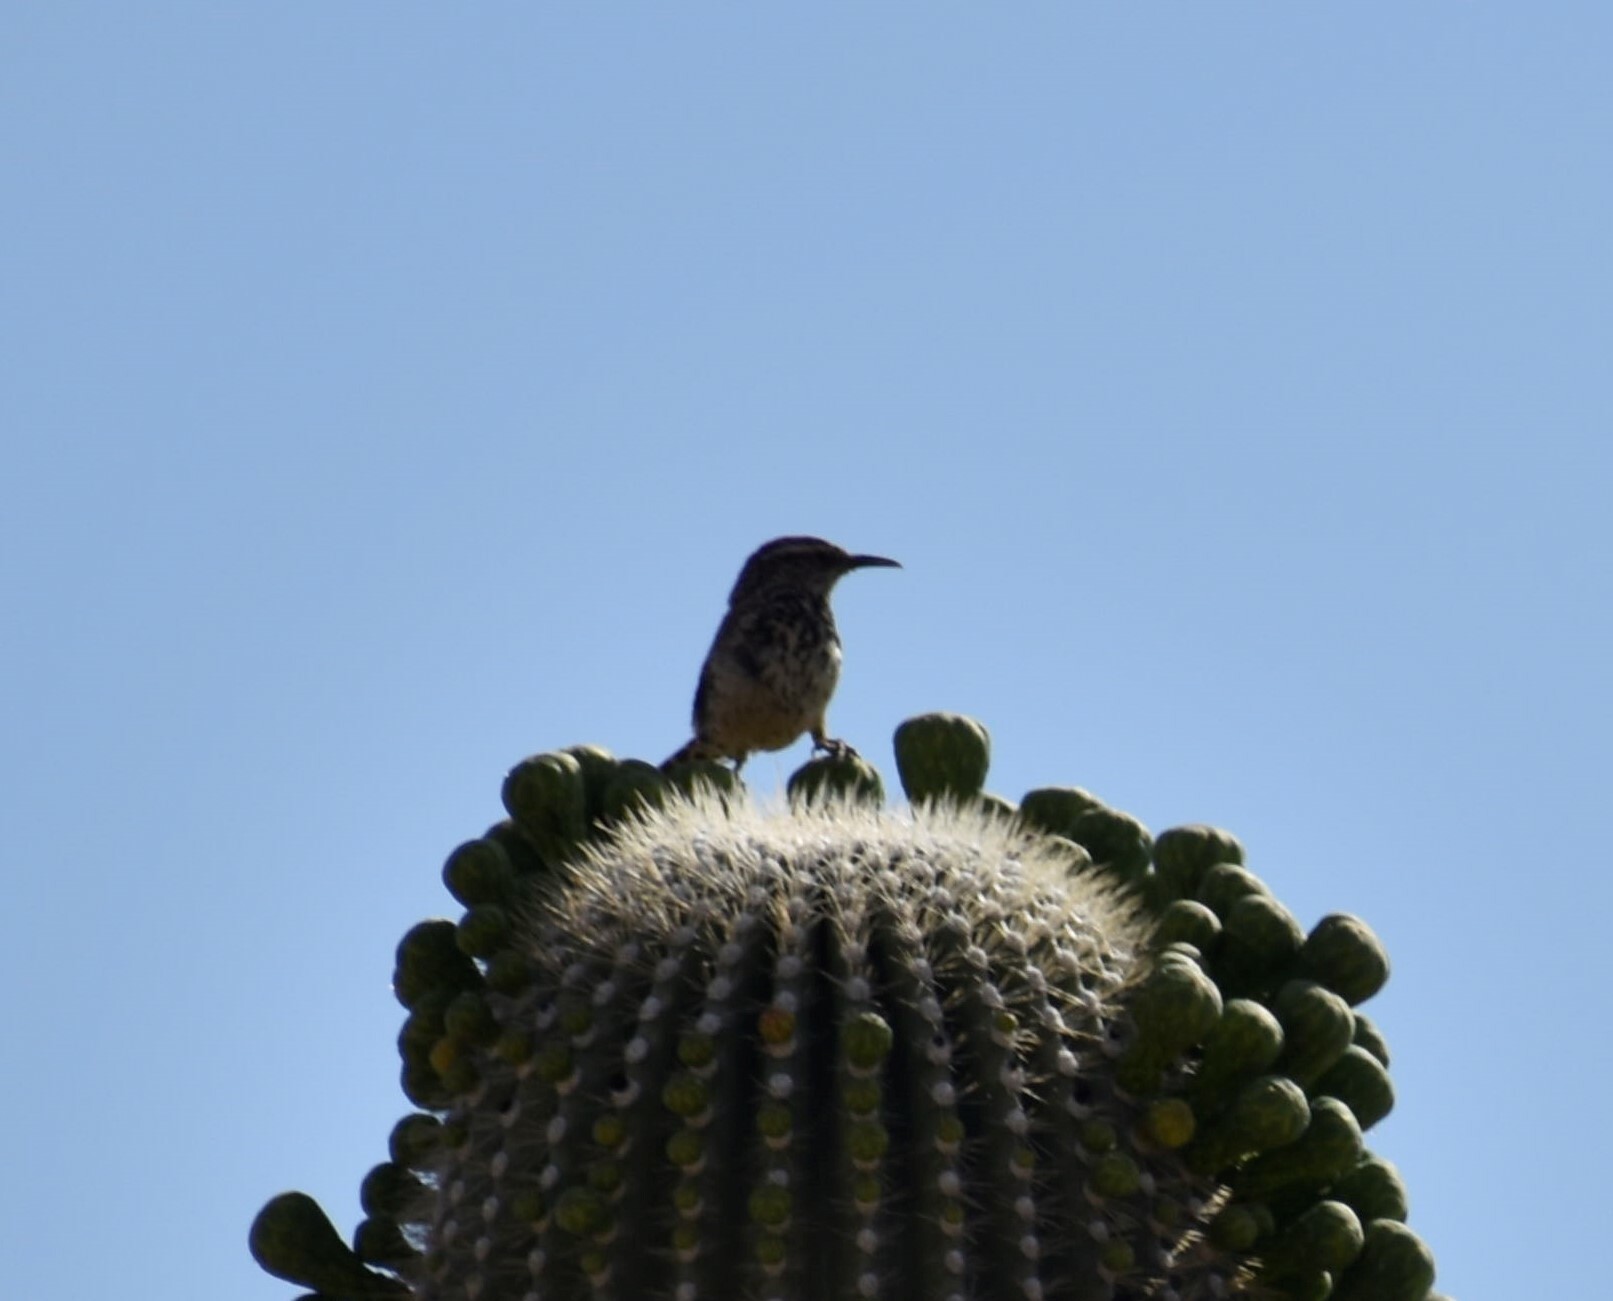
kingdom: Animalia
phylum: Chordata
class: Aves
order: Passeriformes
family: Troglodytidae
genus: Campylorhynchus
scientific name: Campylorhynchus brunneicapillus
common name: Cactus wren
